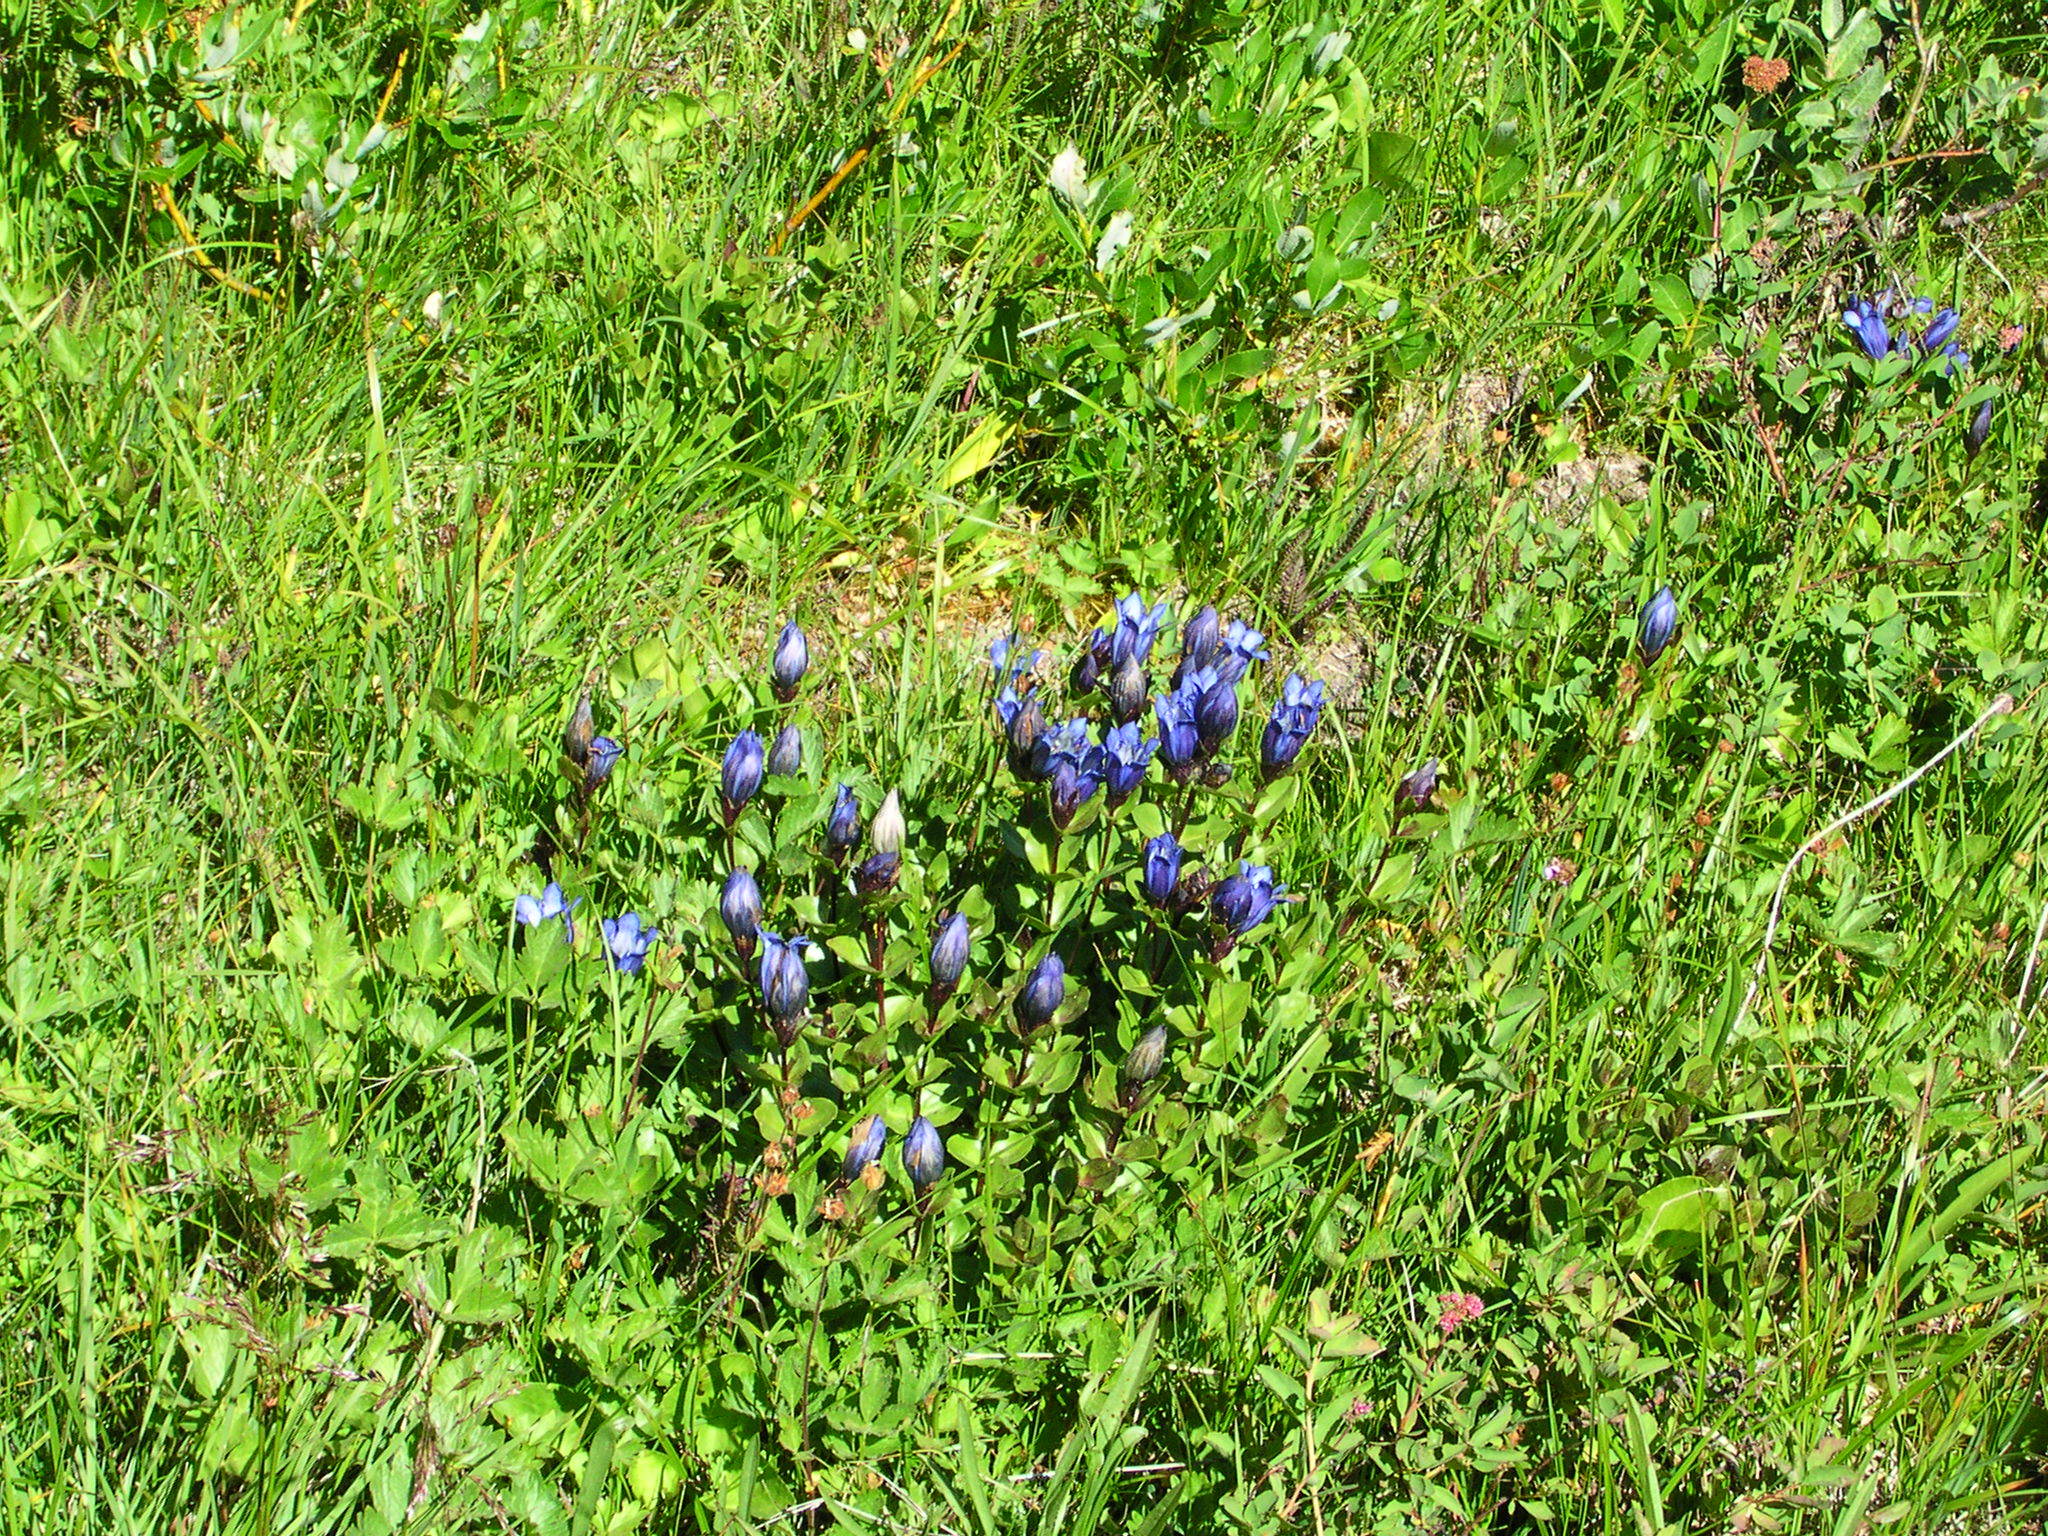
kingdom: Plantae
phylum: Tracheophyta
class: Magnoliopsida
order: Gentianales
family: Gentianaceae
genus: Gentiana
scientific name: Gentiana calycosa
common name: Rainier pleated gentian
